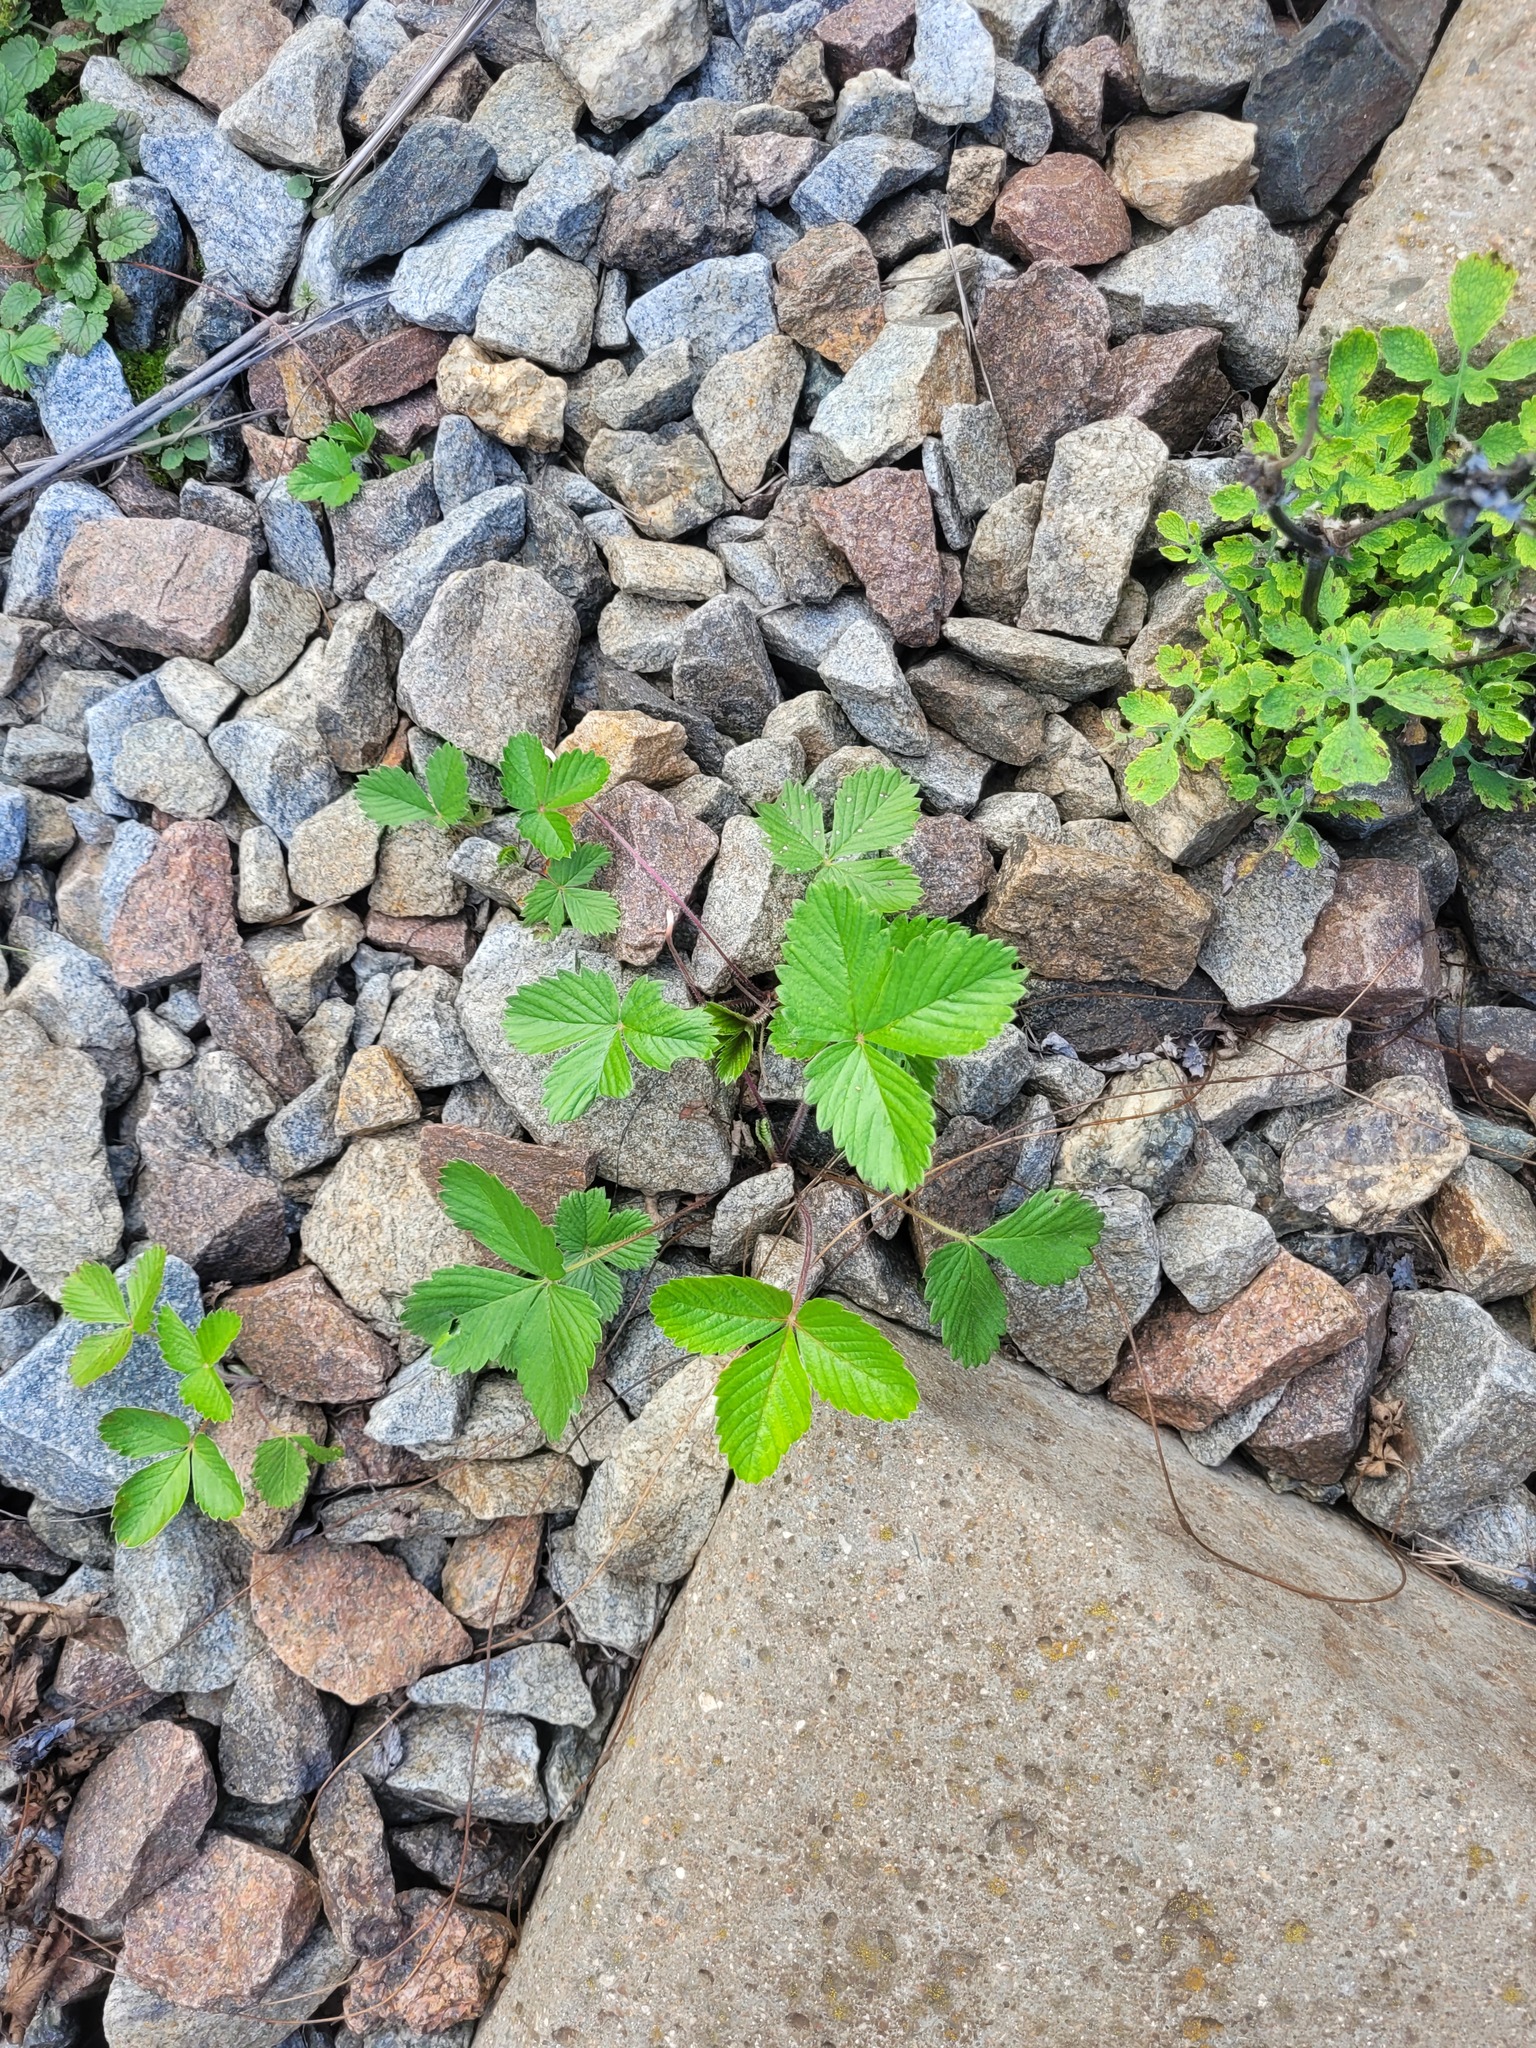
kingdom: Plantae
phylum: Tracheophyta
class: Magnoliopsida
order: Rosales
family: Rosaceae
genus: Fragaria
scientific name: Fragaria vesca
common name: Wild strawberry
